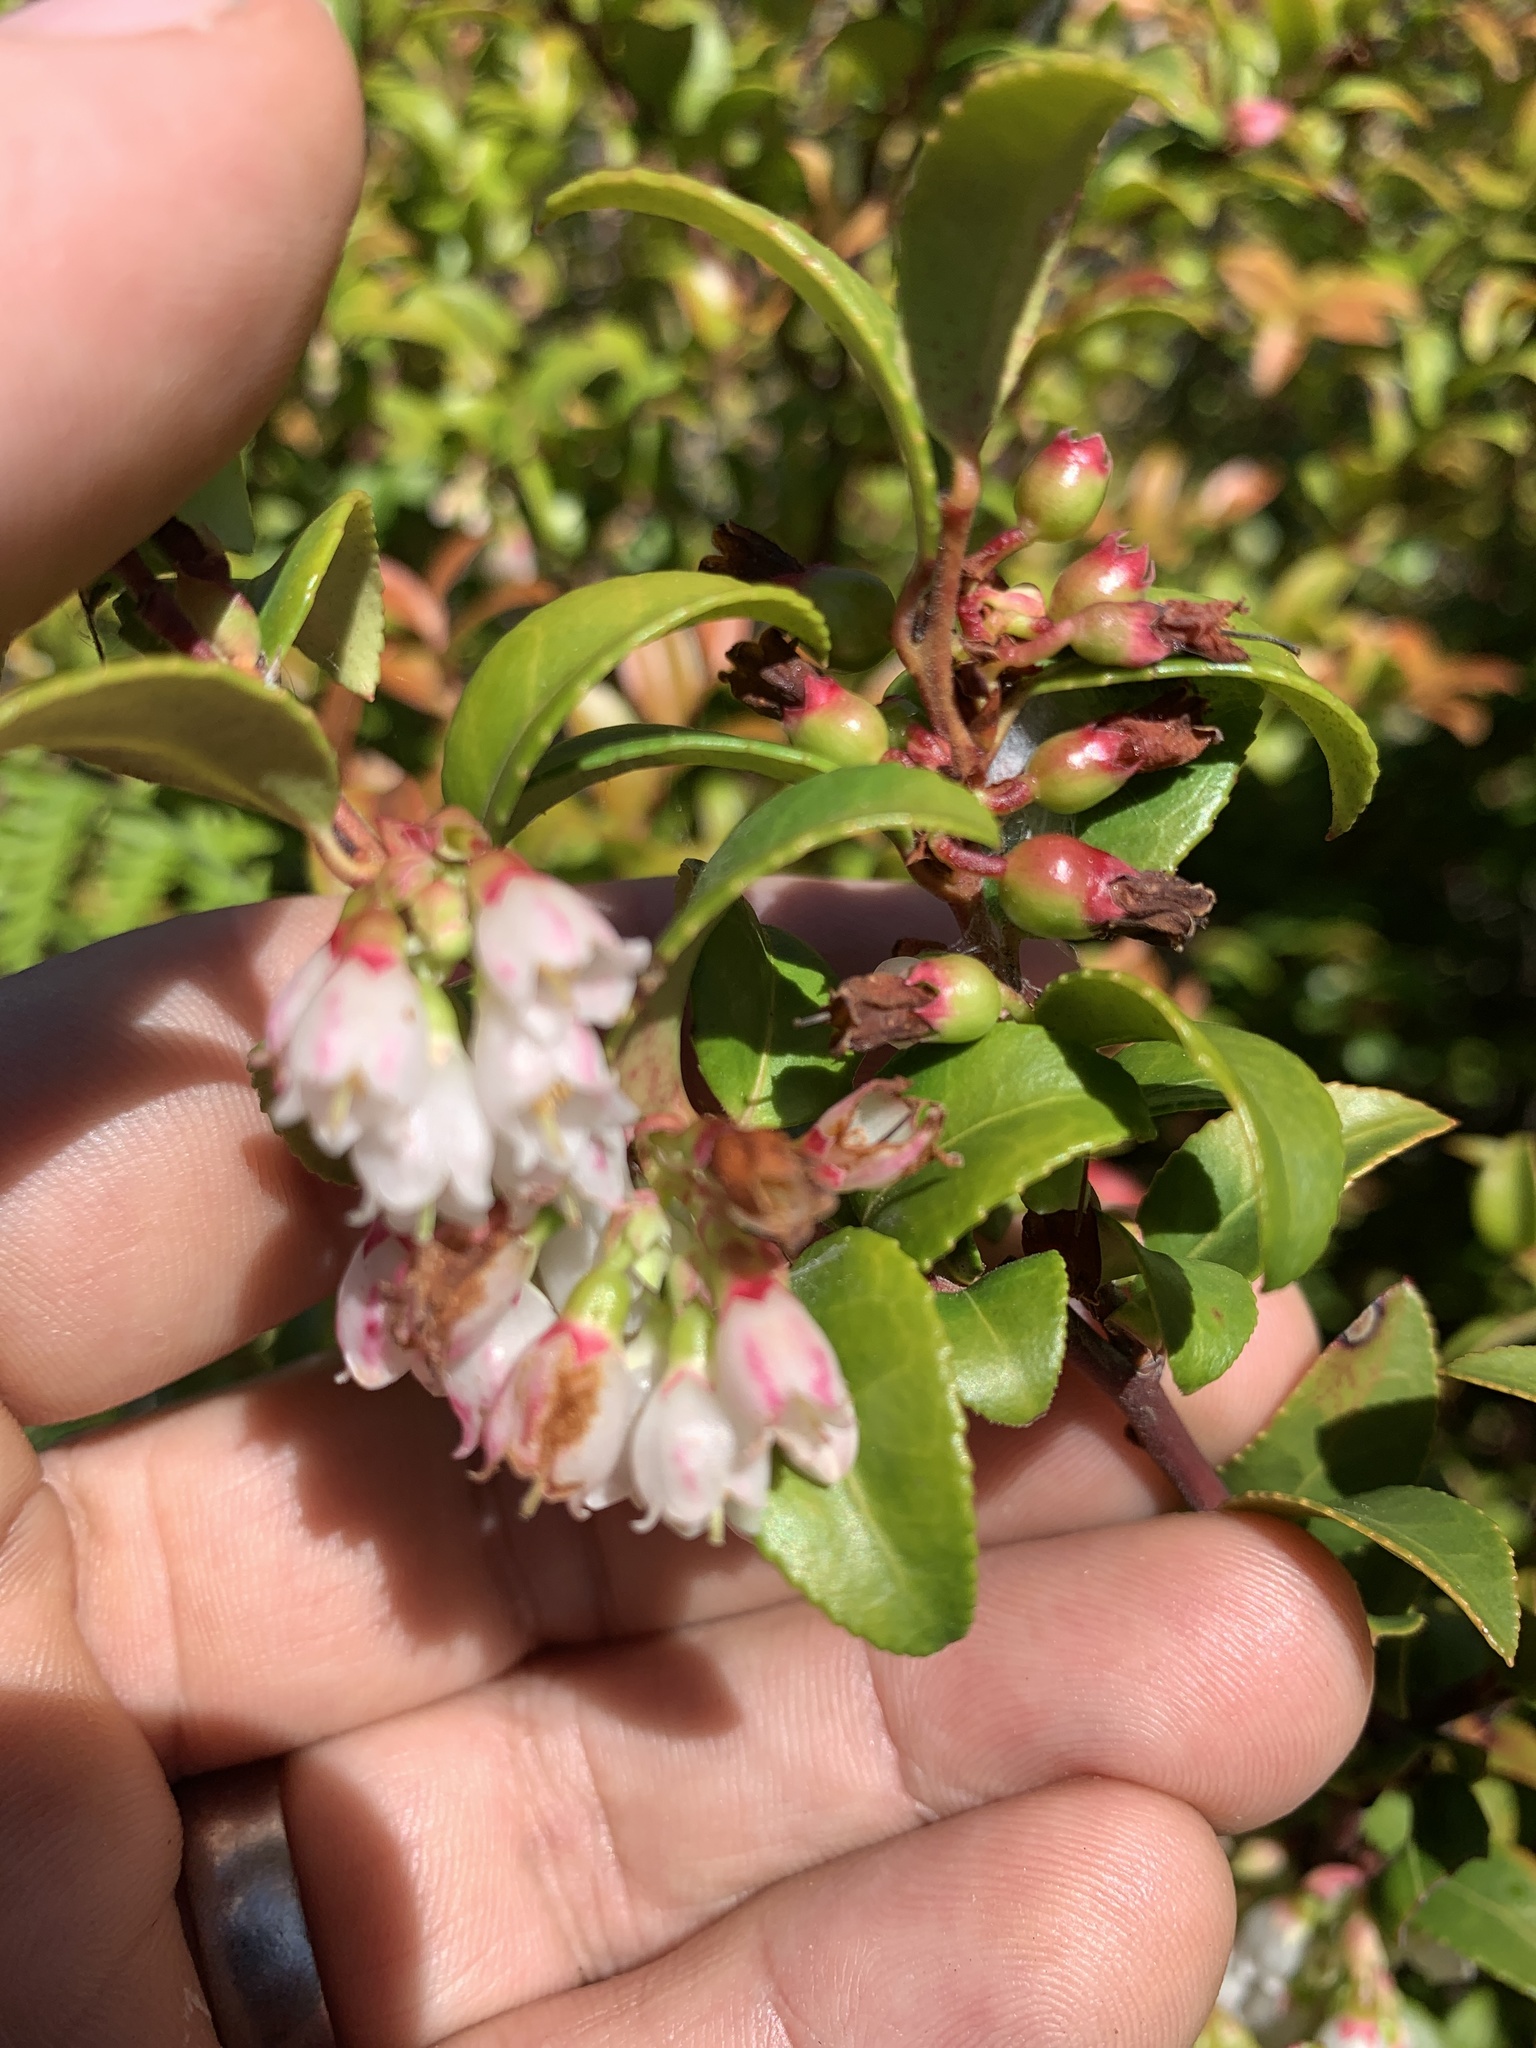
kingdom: Plantae
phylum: Tracheophyta
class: Magnoliopsida
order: Ericales
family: Ericaceae
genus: Vaccinium
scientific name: Vaccinium ovatum
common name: California-huckleberry
